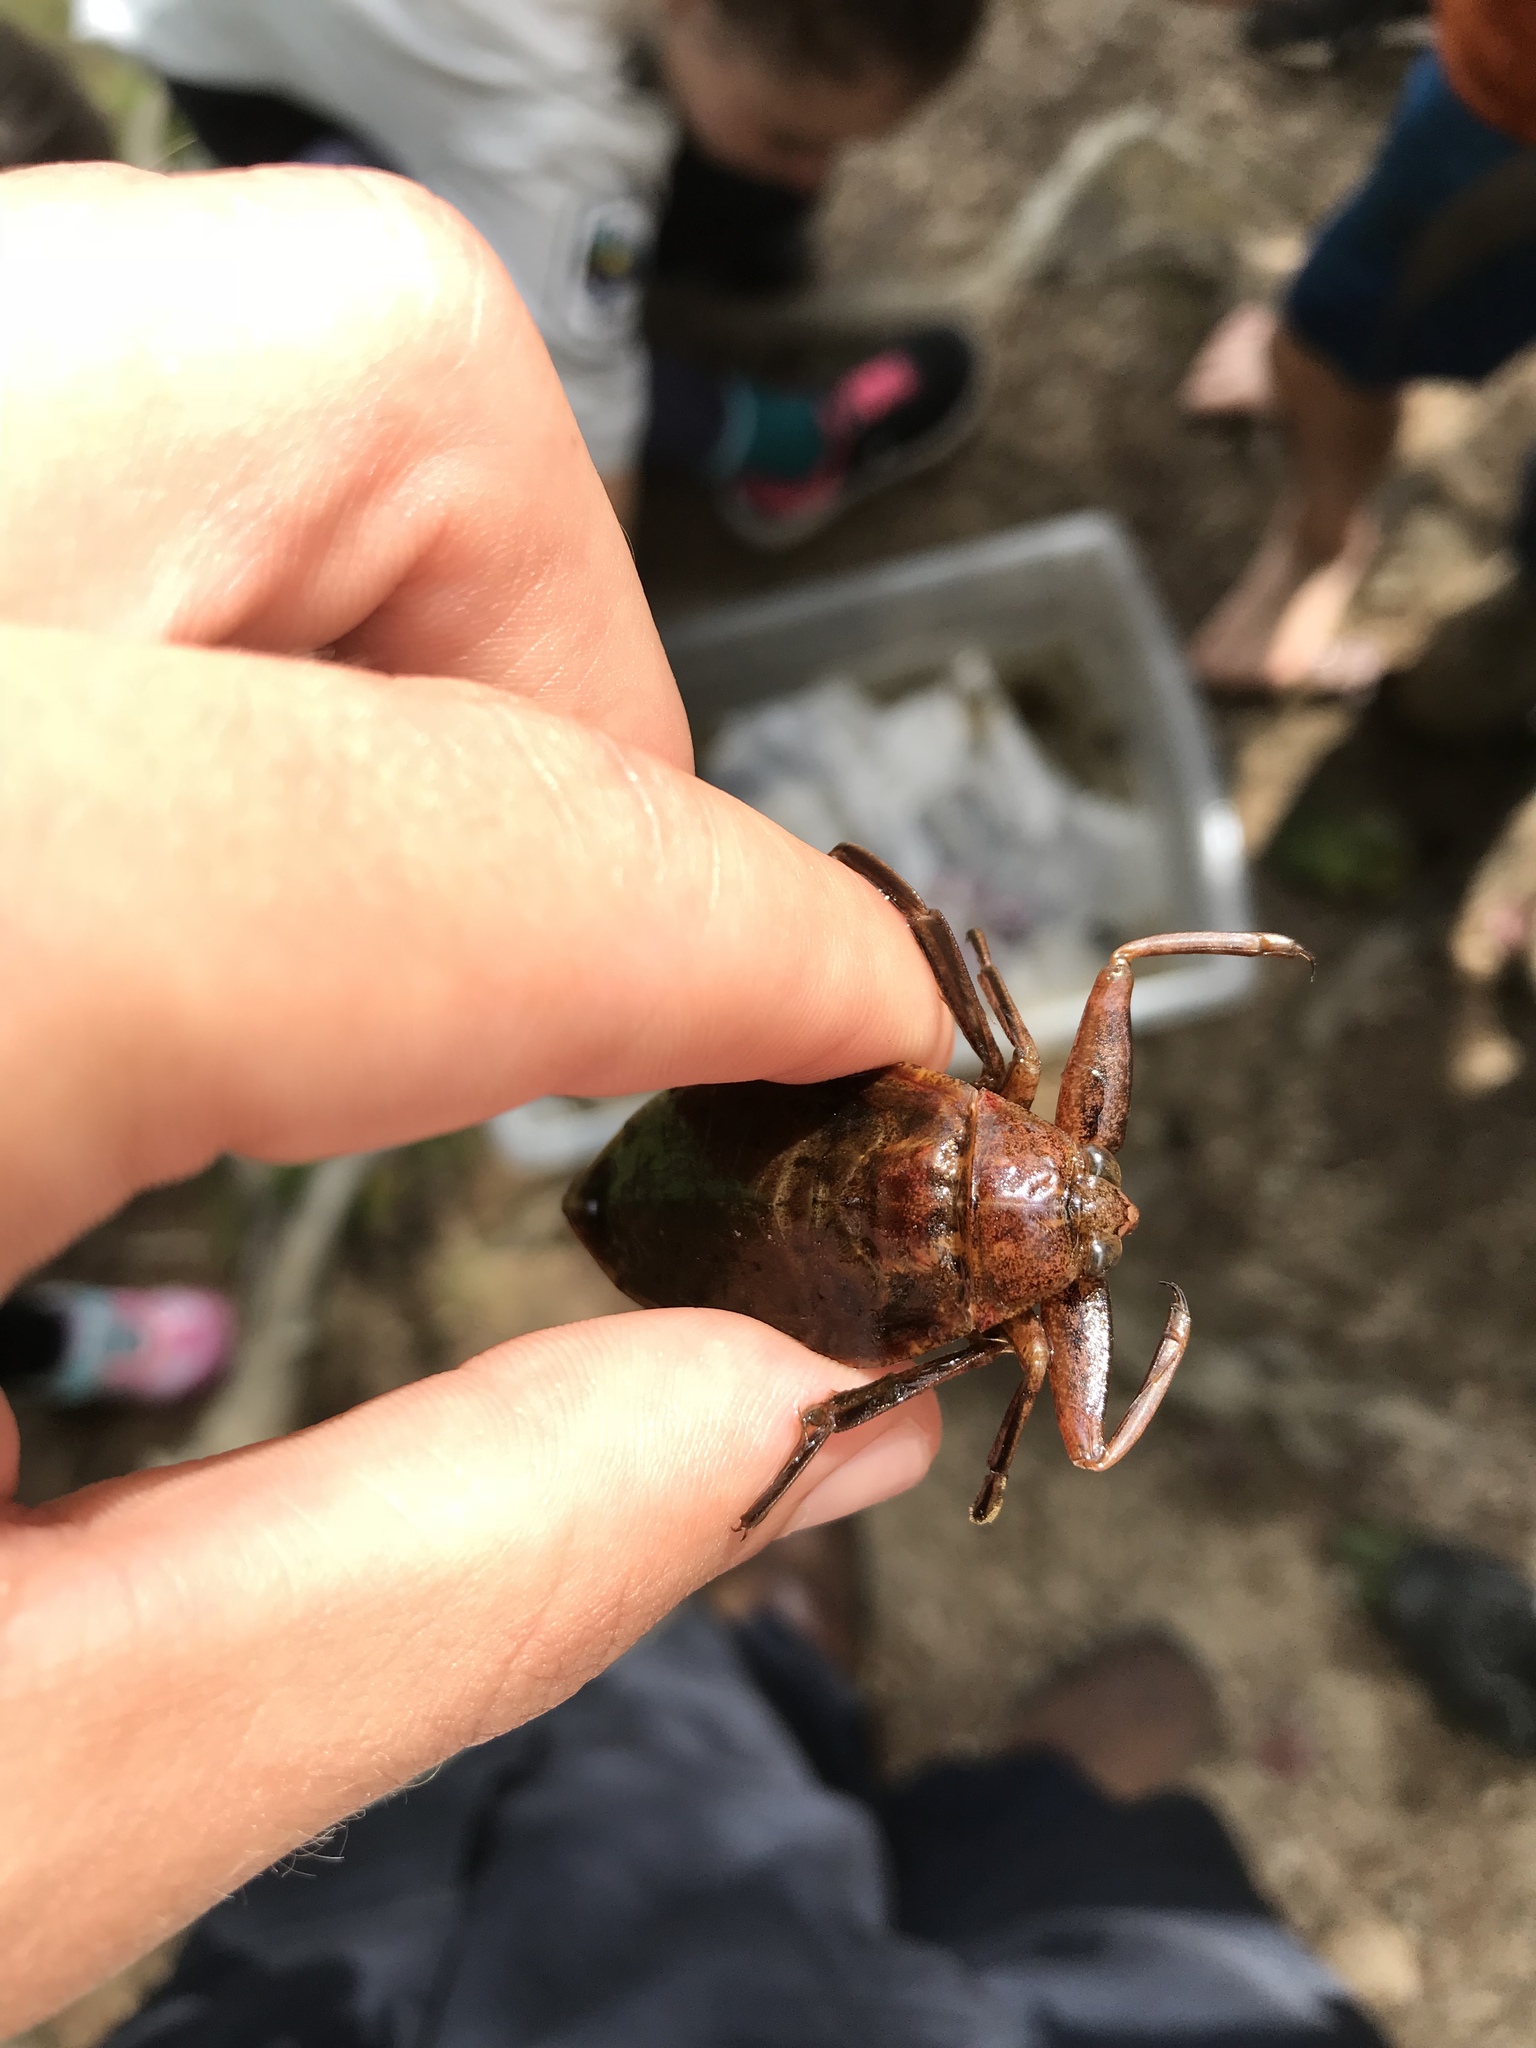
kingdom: Animalia
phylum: Arthropoda
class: Insecta
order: Hemiptera
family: Belostomatidae
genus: Lethocerus
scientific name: Lethocerus americanus
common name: Giant water bug
